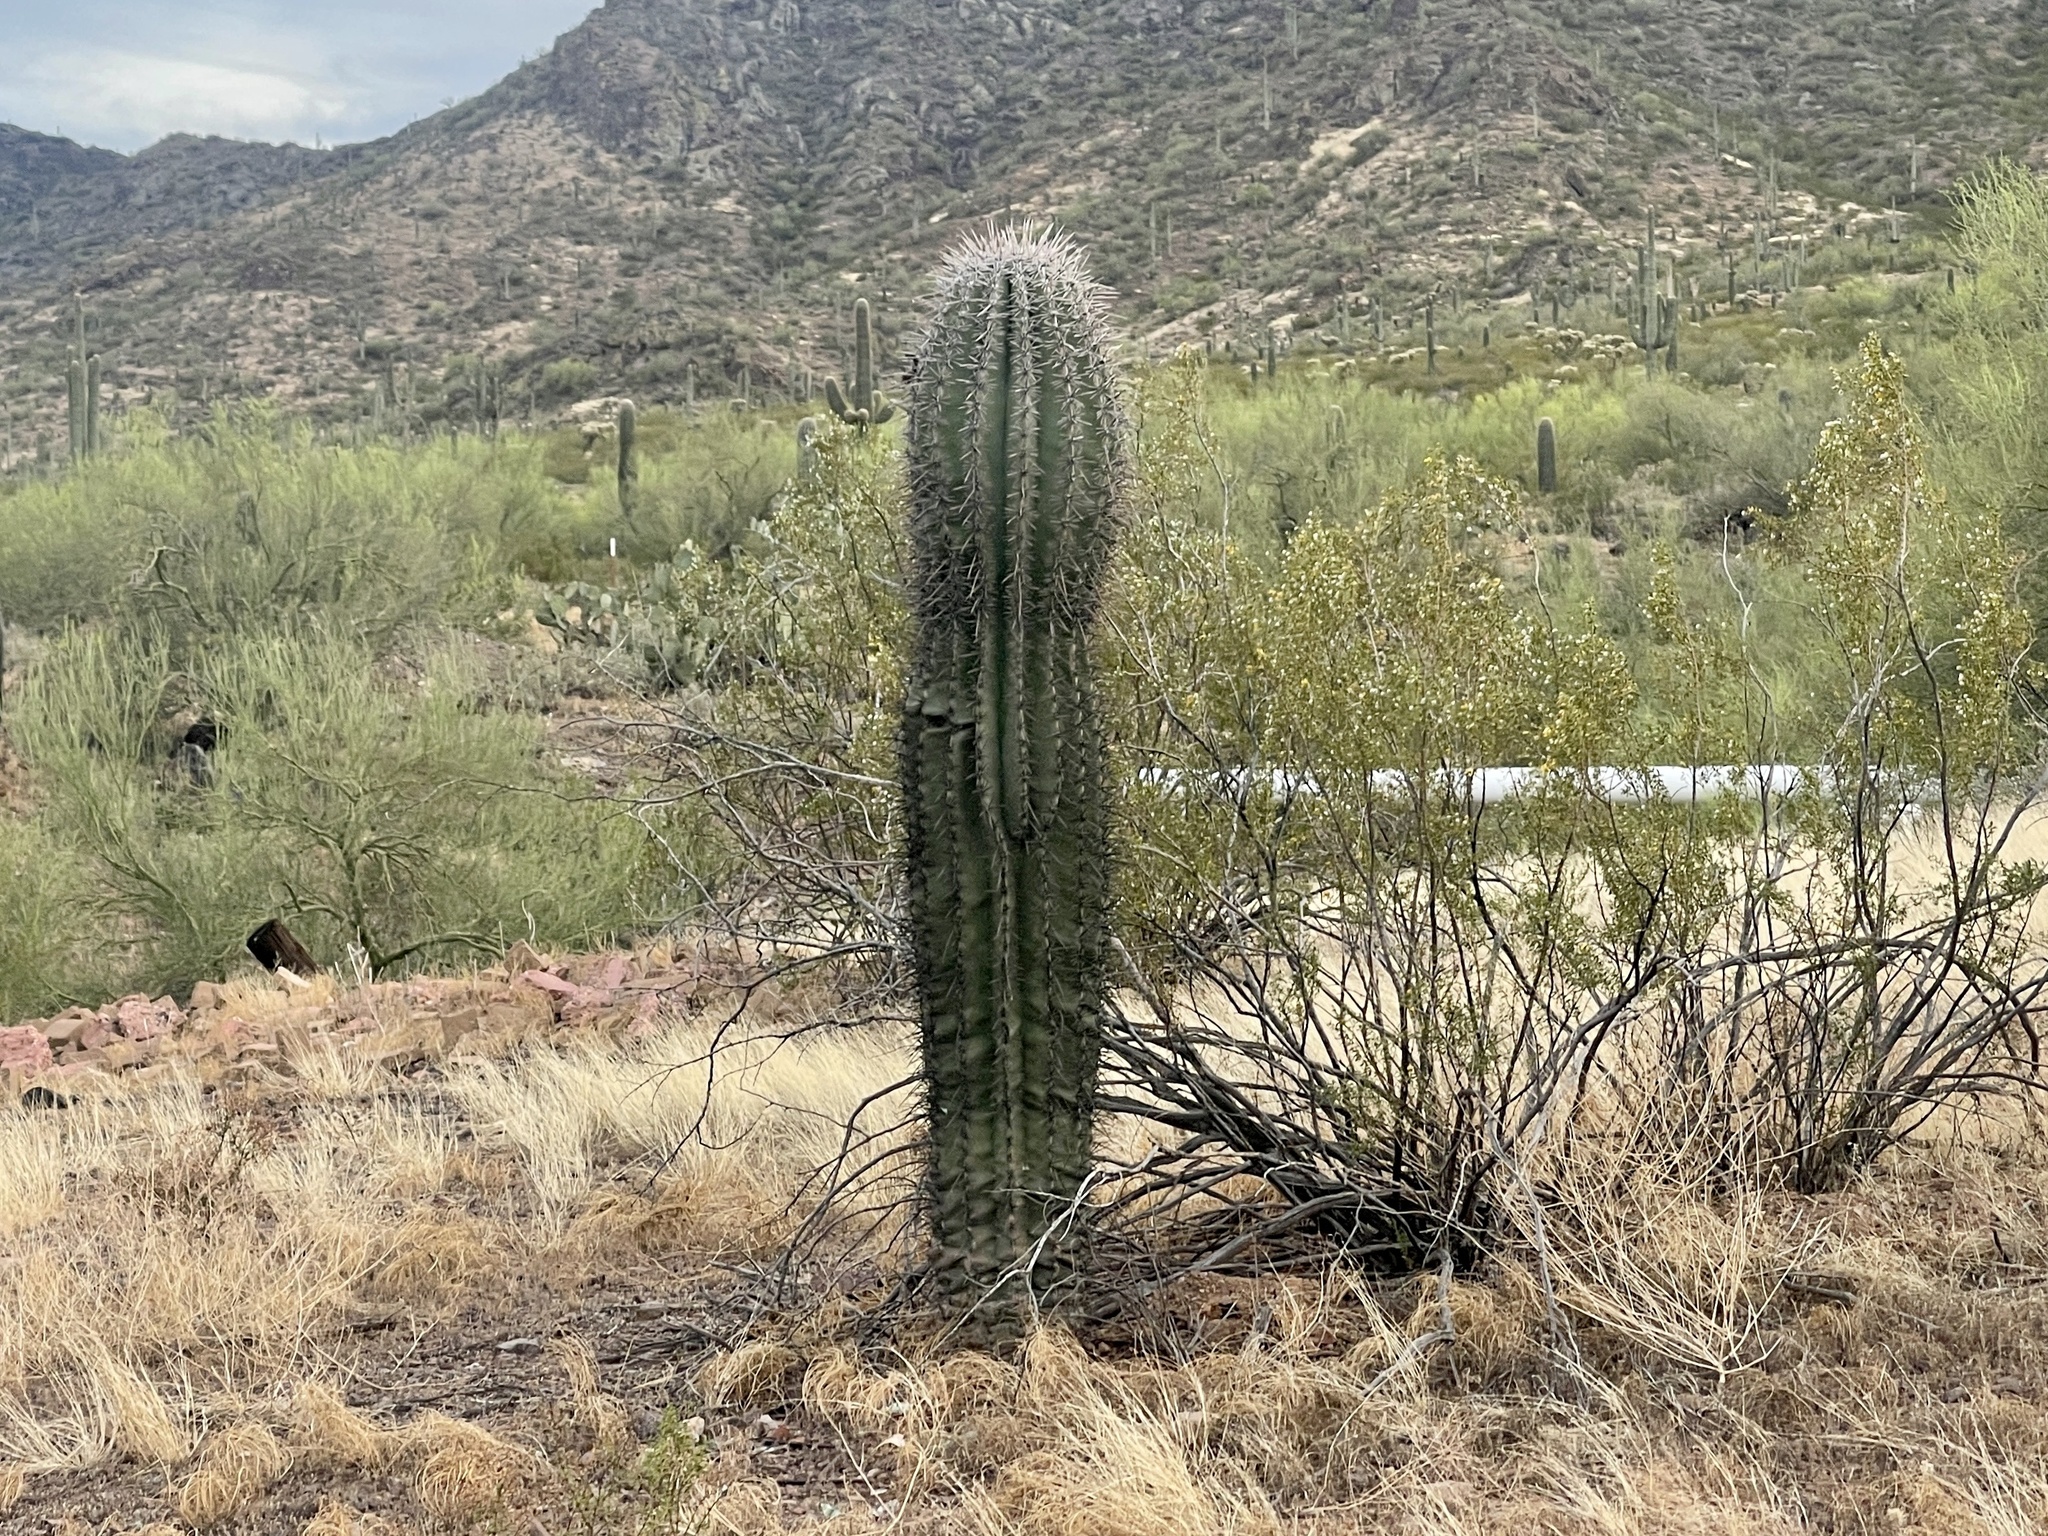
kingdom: Plantae
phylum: Tracheophyta
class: Magnoliopsida
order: Caryophyllales
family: Cactaceae
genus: Carnegiea
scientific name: Carnegiea gigantea
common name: Saguaro
